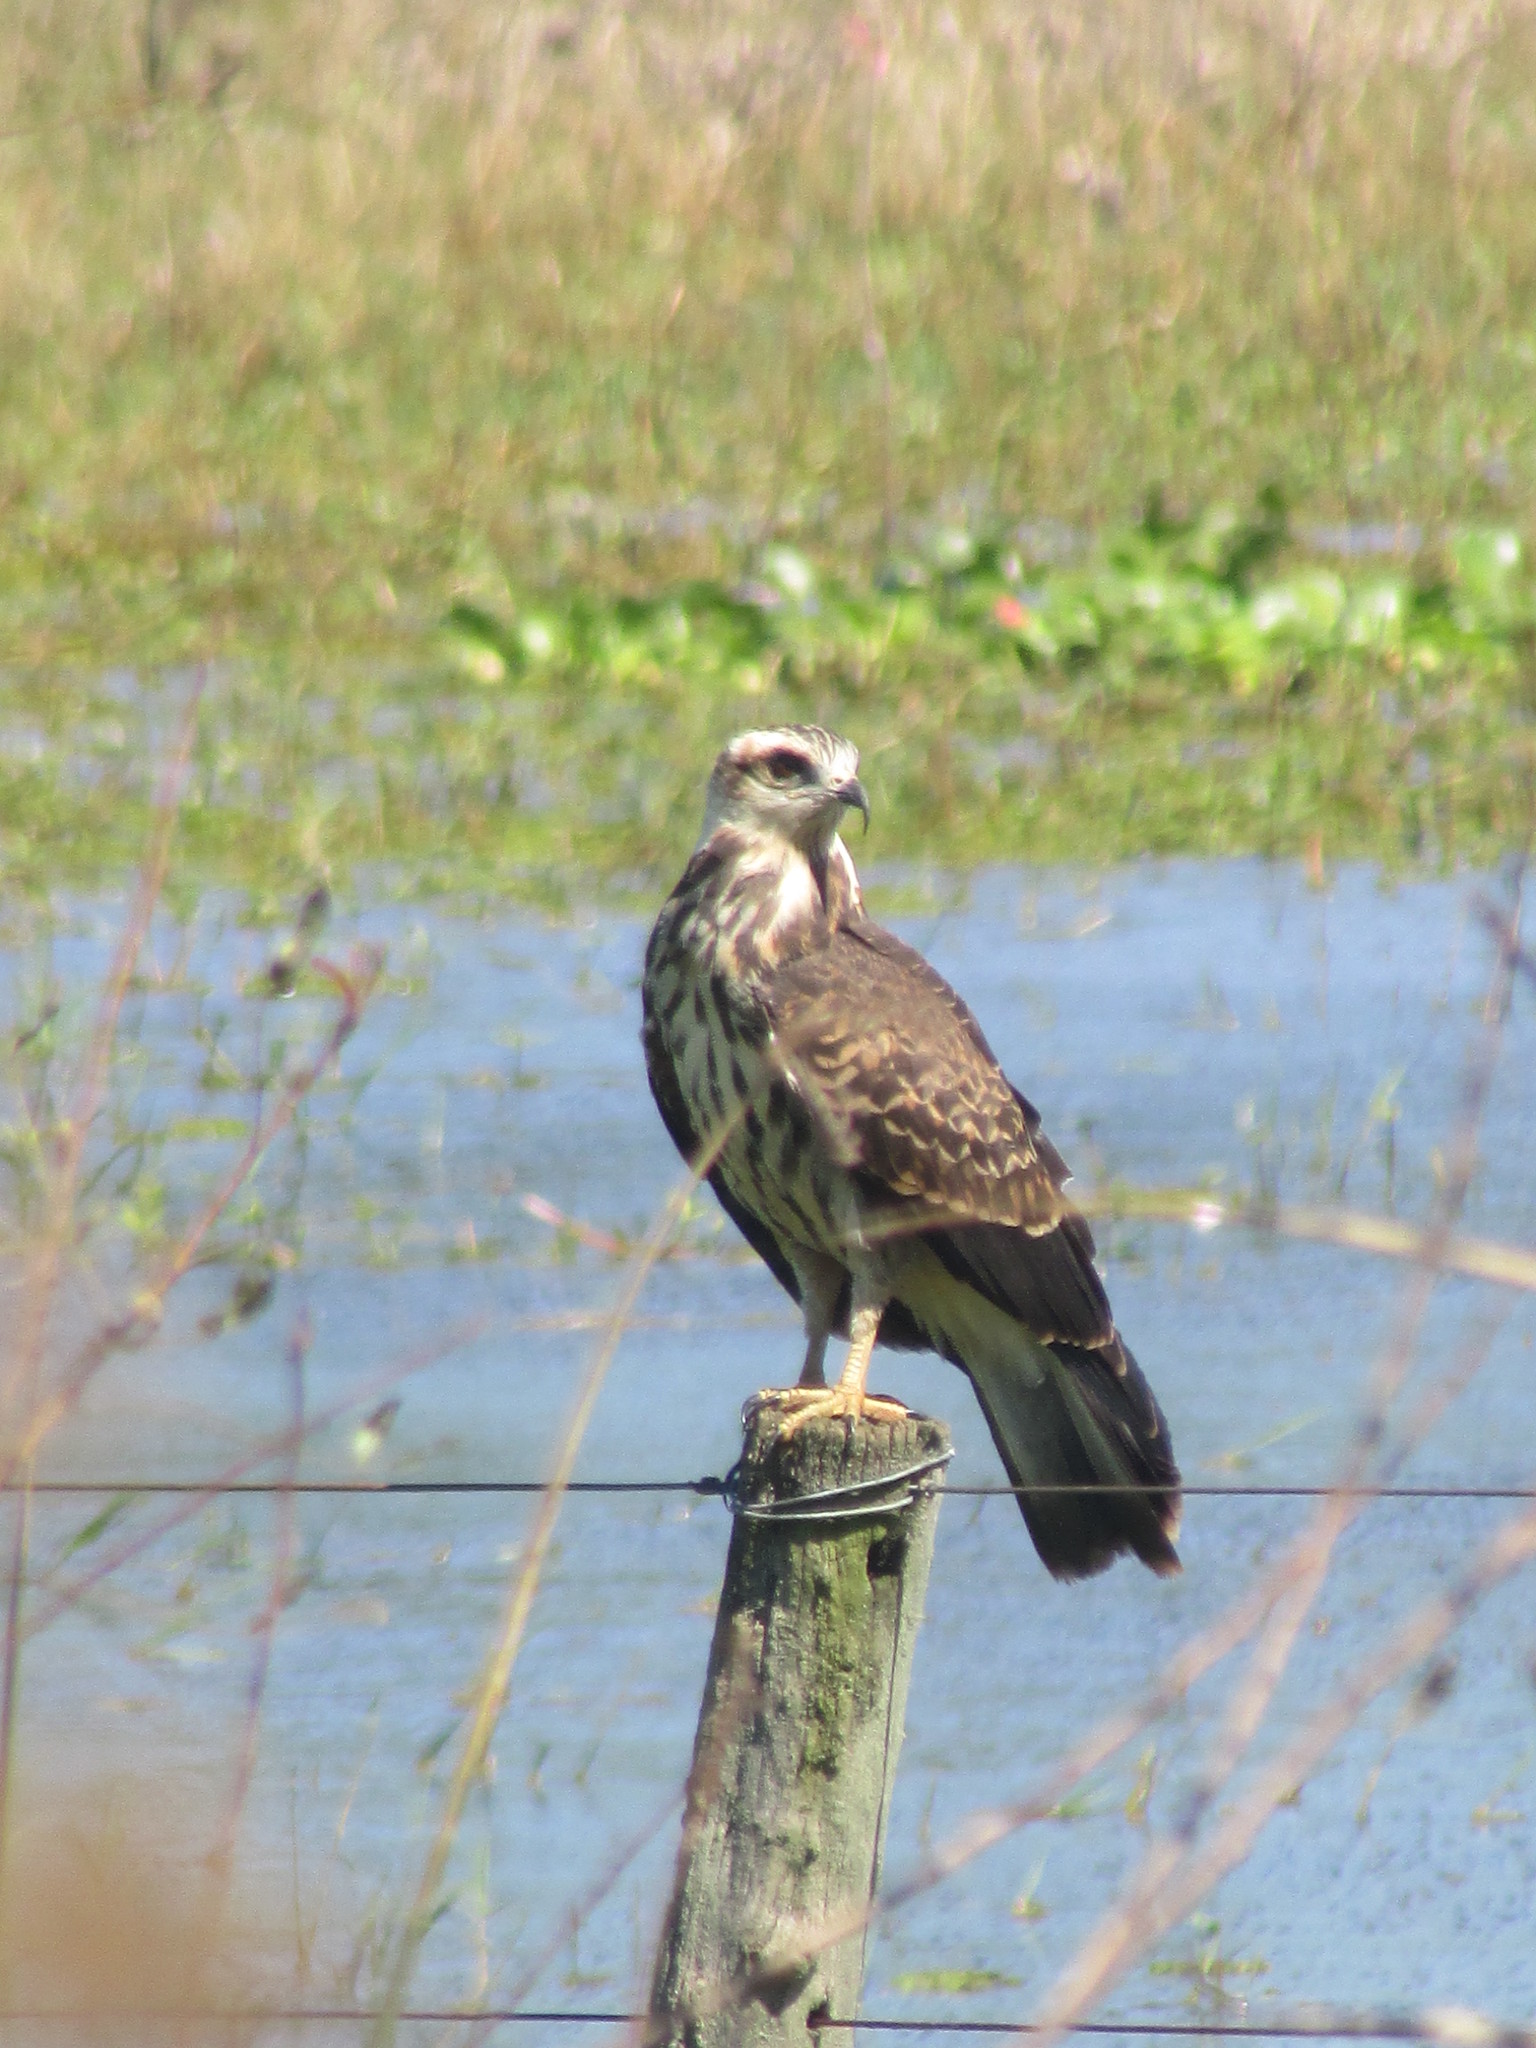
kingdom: Animalia
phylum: Chordata
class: Aves
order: Accipitriformes
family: Accipitridae
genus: Rostrhamus
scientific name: Rostrhamus sociabilis
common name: Snail kite
